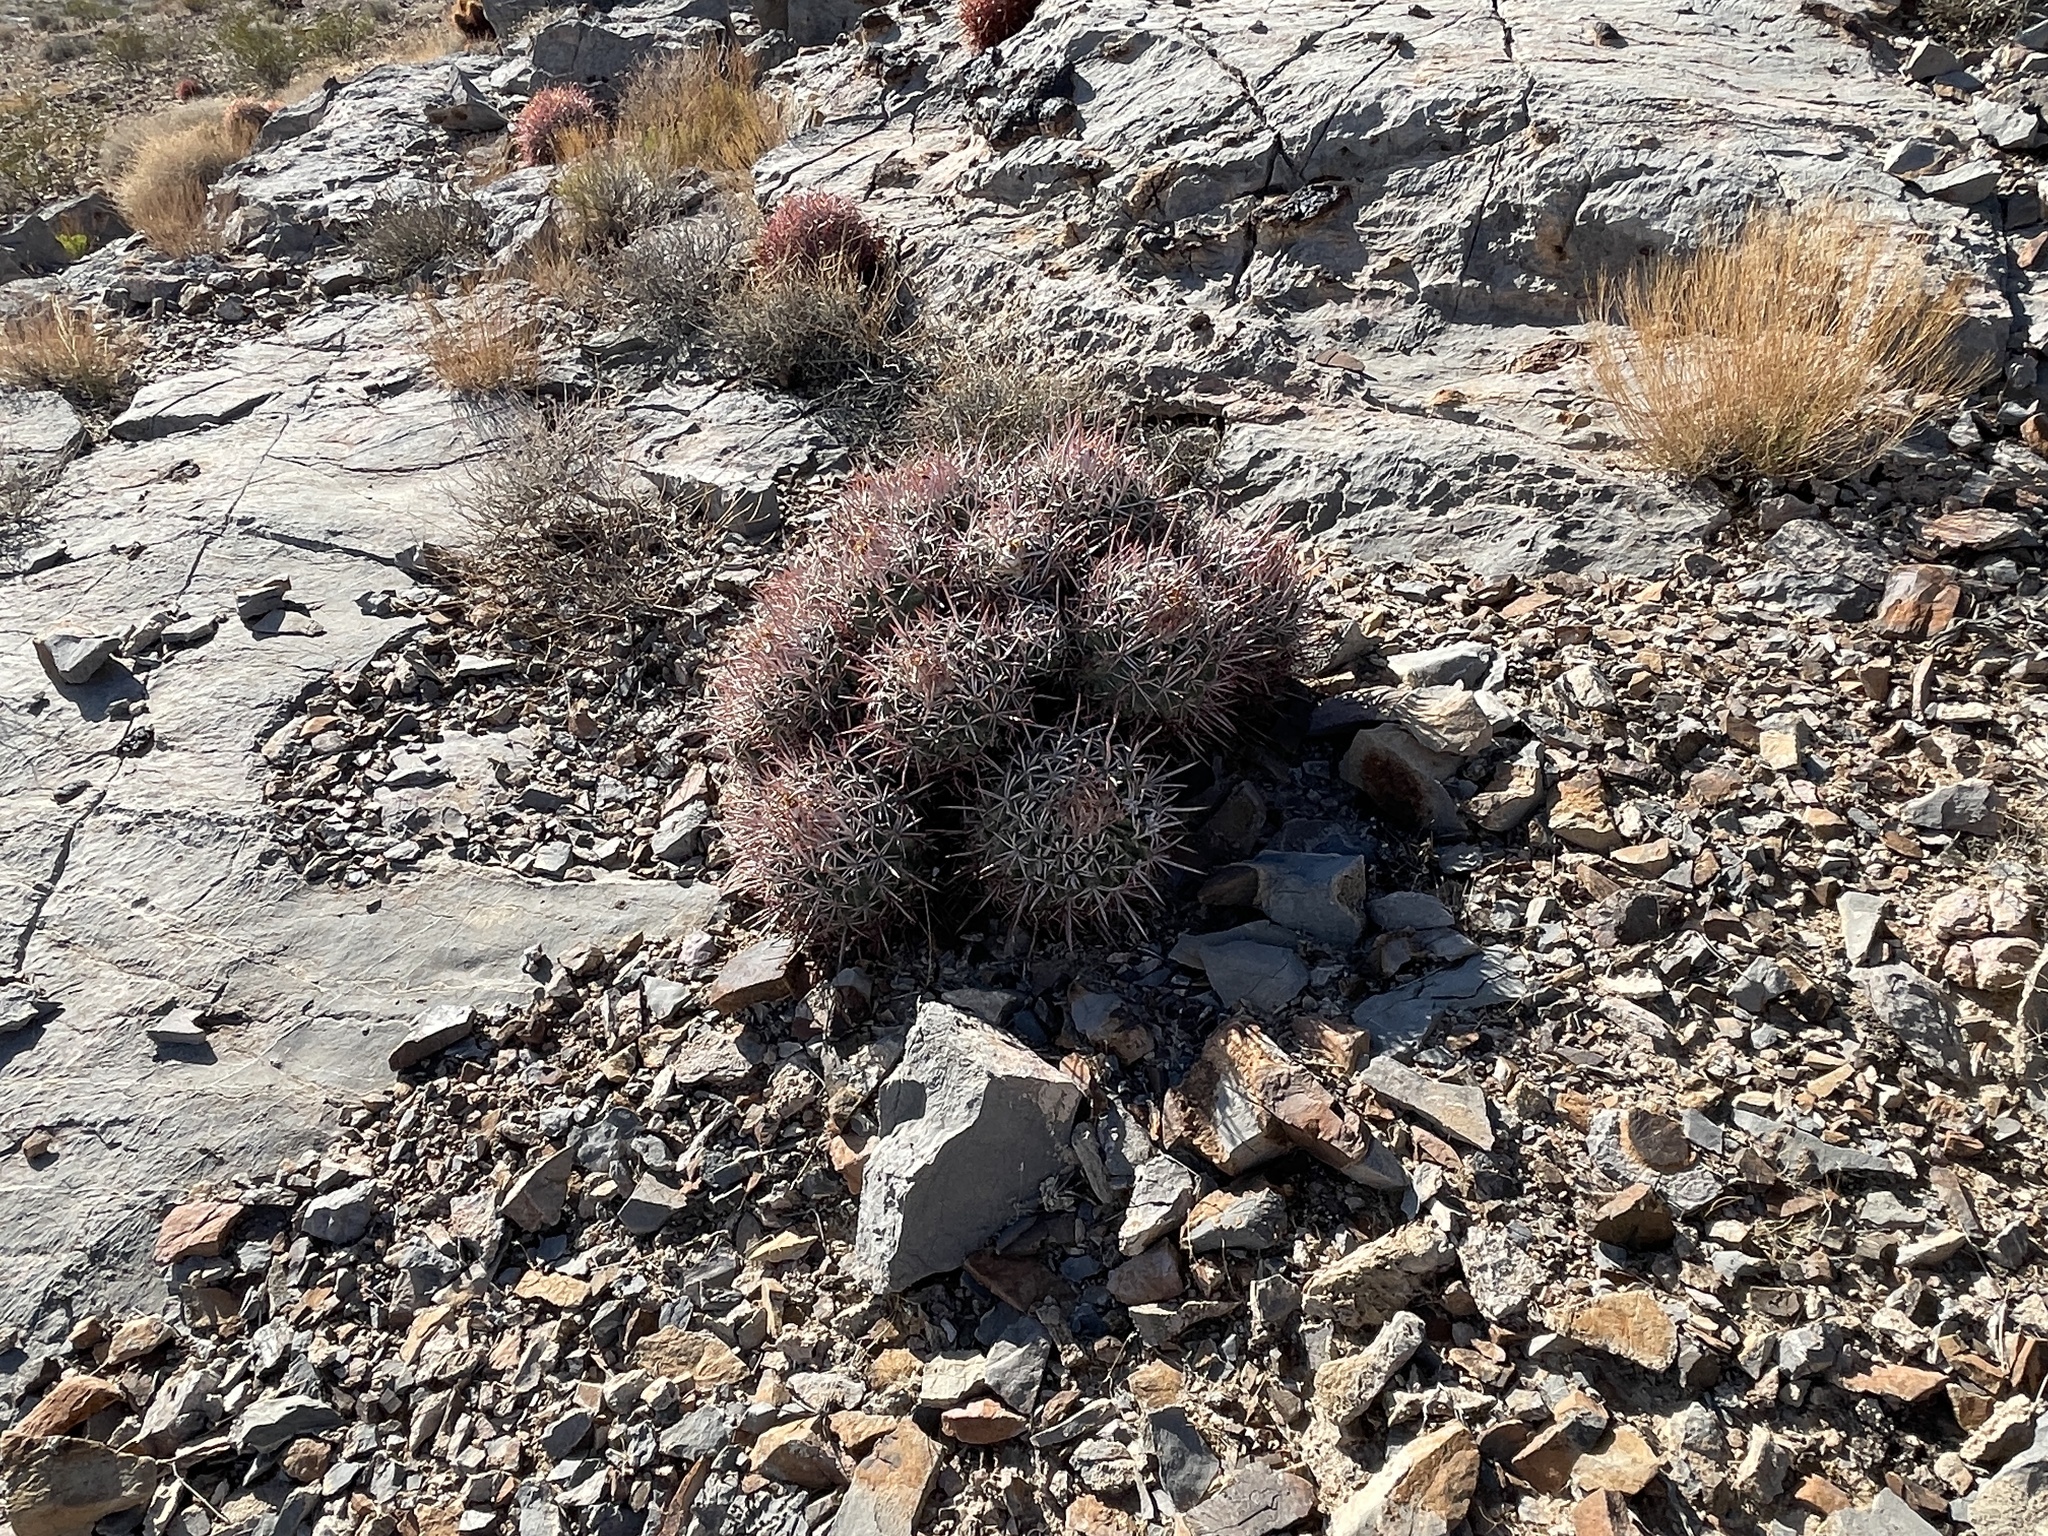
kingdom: Plantae
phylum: Tracheophyta
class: Magnoliopsida
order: Caryophyllales
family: Cactaceae
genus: Echinocactus
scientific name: Echinocactus polycephalus
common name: Cottontop cactus
